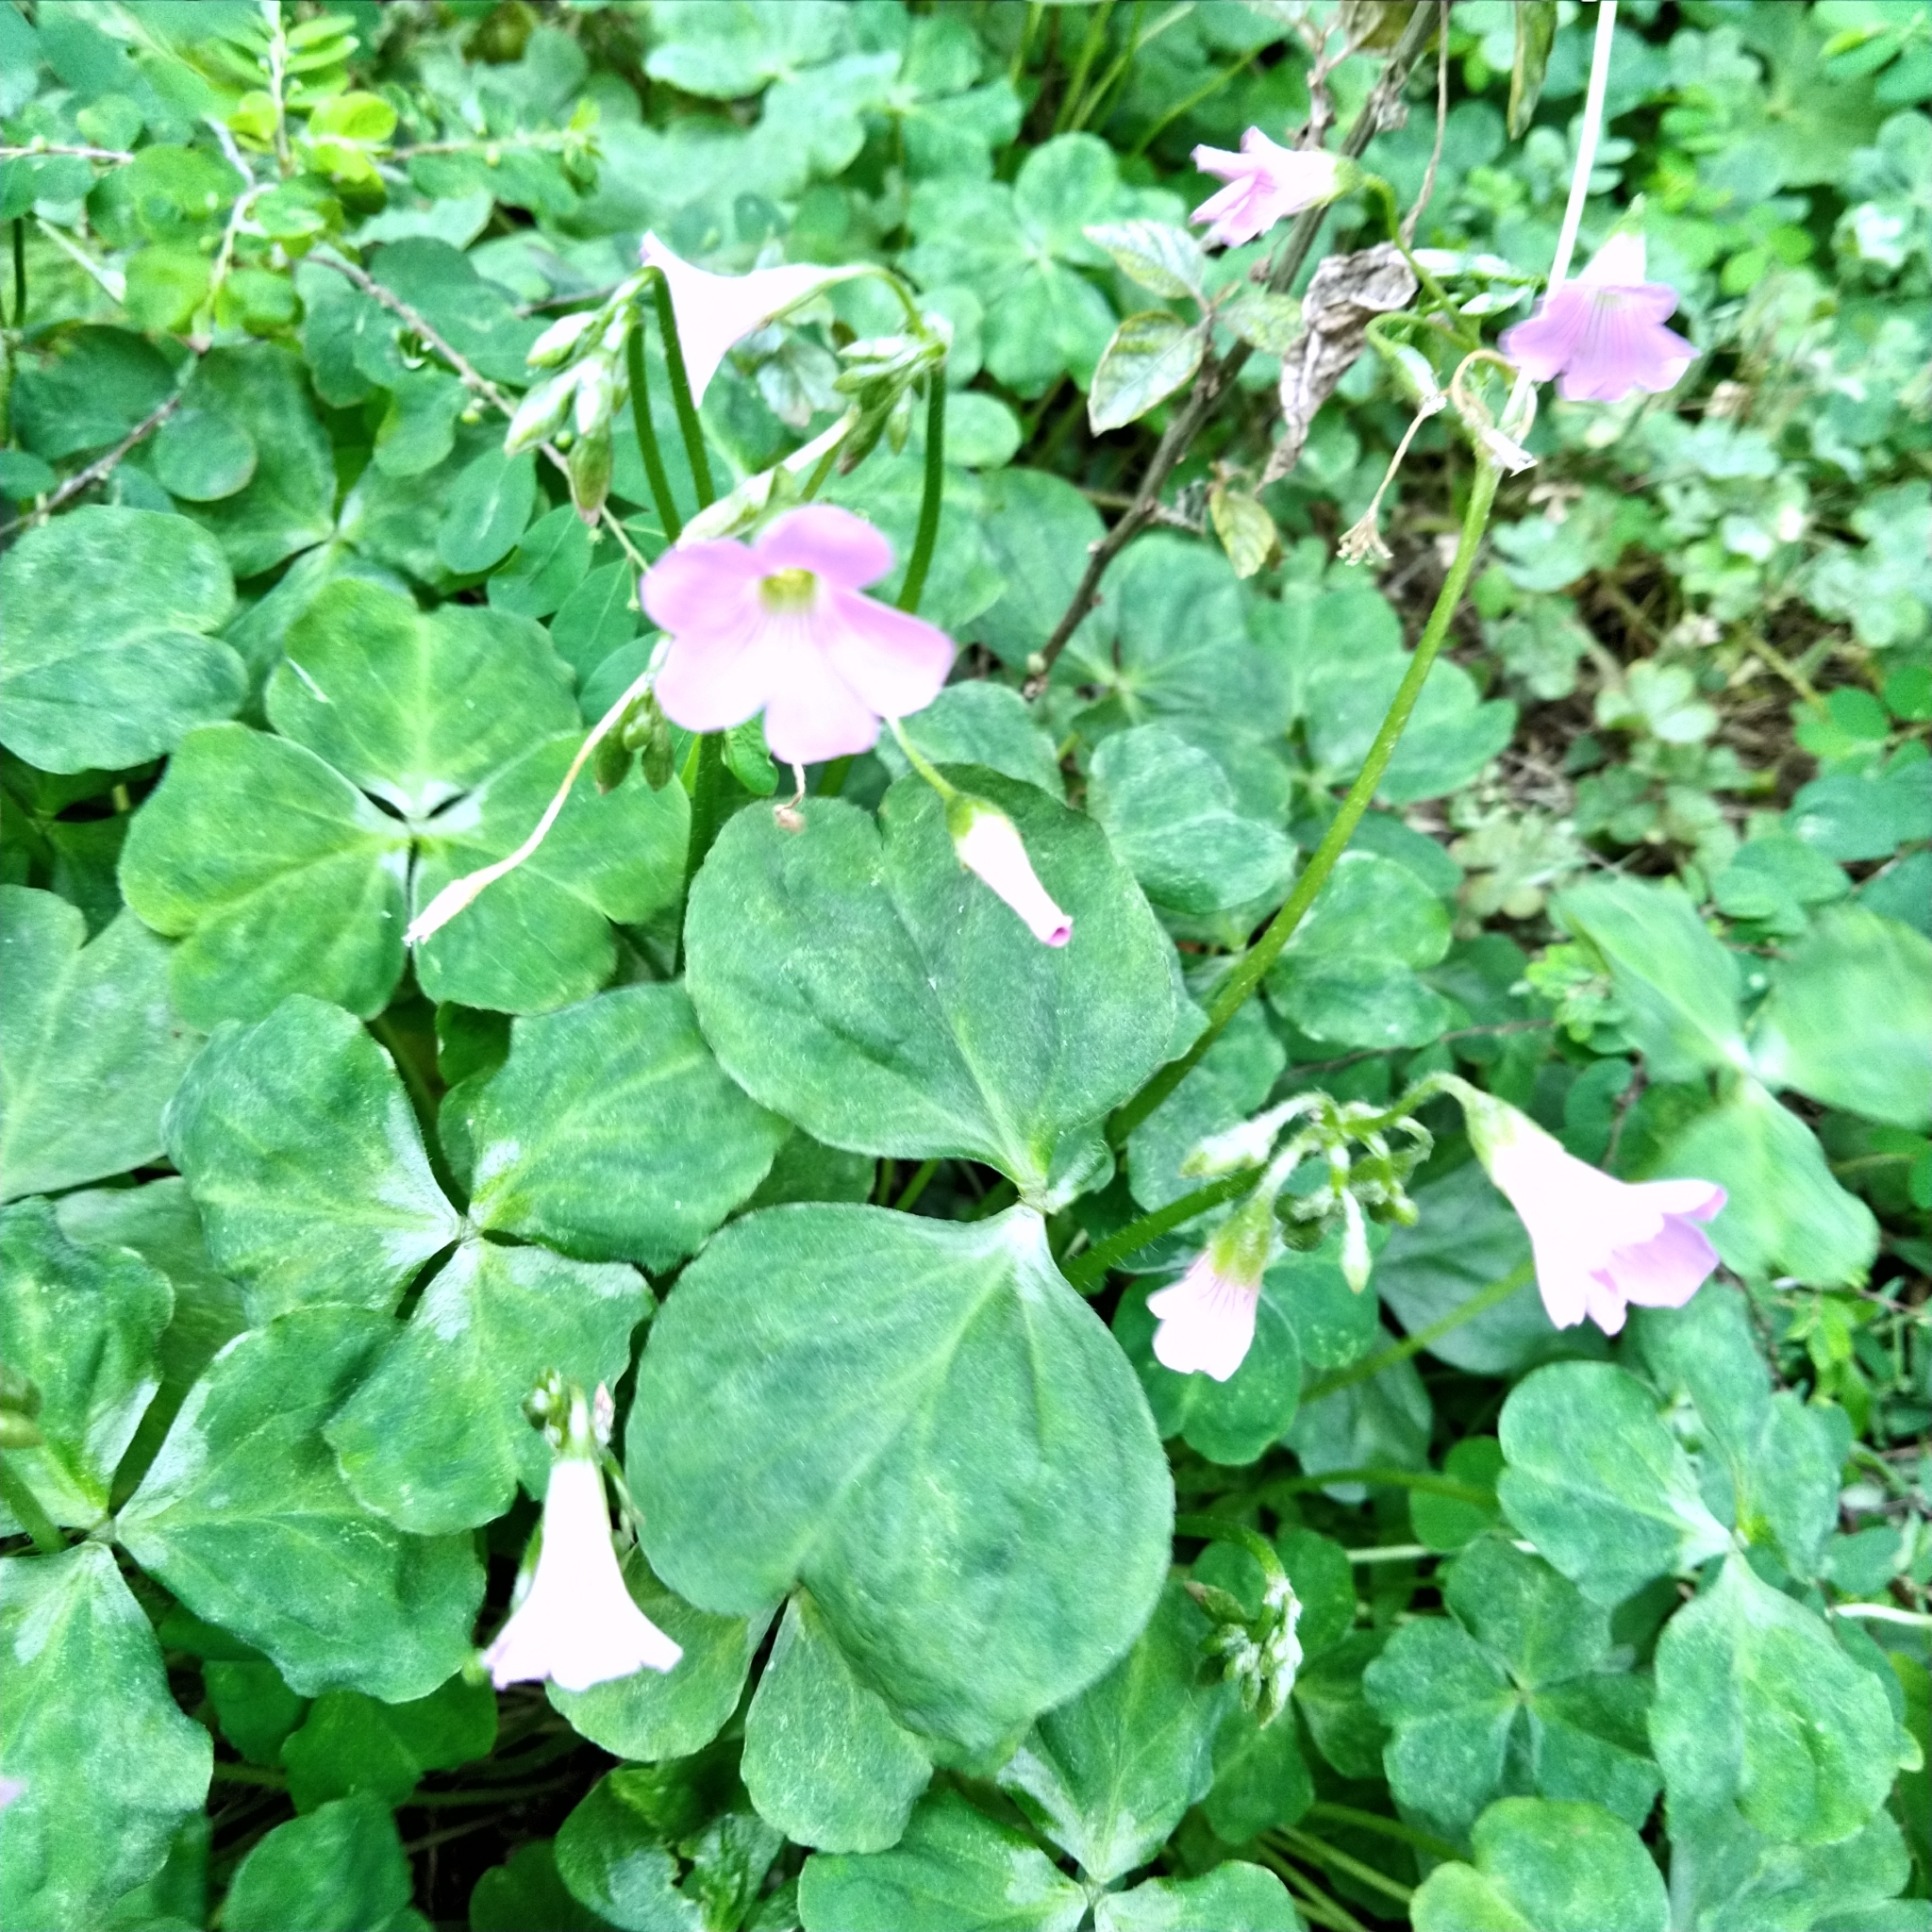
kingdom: Plantae
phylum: Tracheophyta
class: Magnoliopsida
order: Oxalidales
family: Oxalidaceae
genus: Oxalis
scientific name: Oxalis debilis
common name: Large-flowered pink-sorrel
